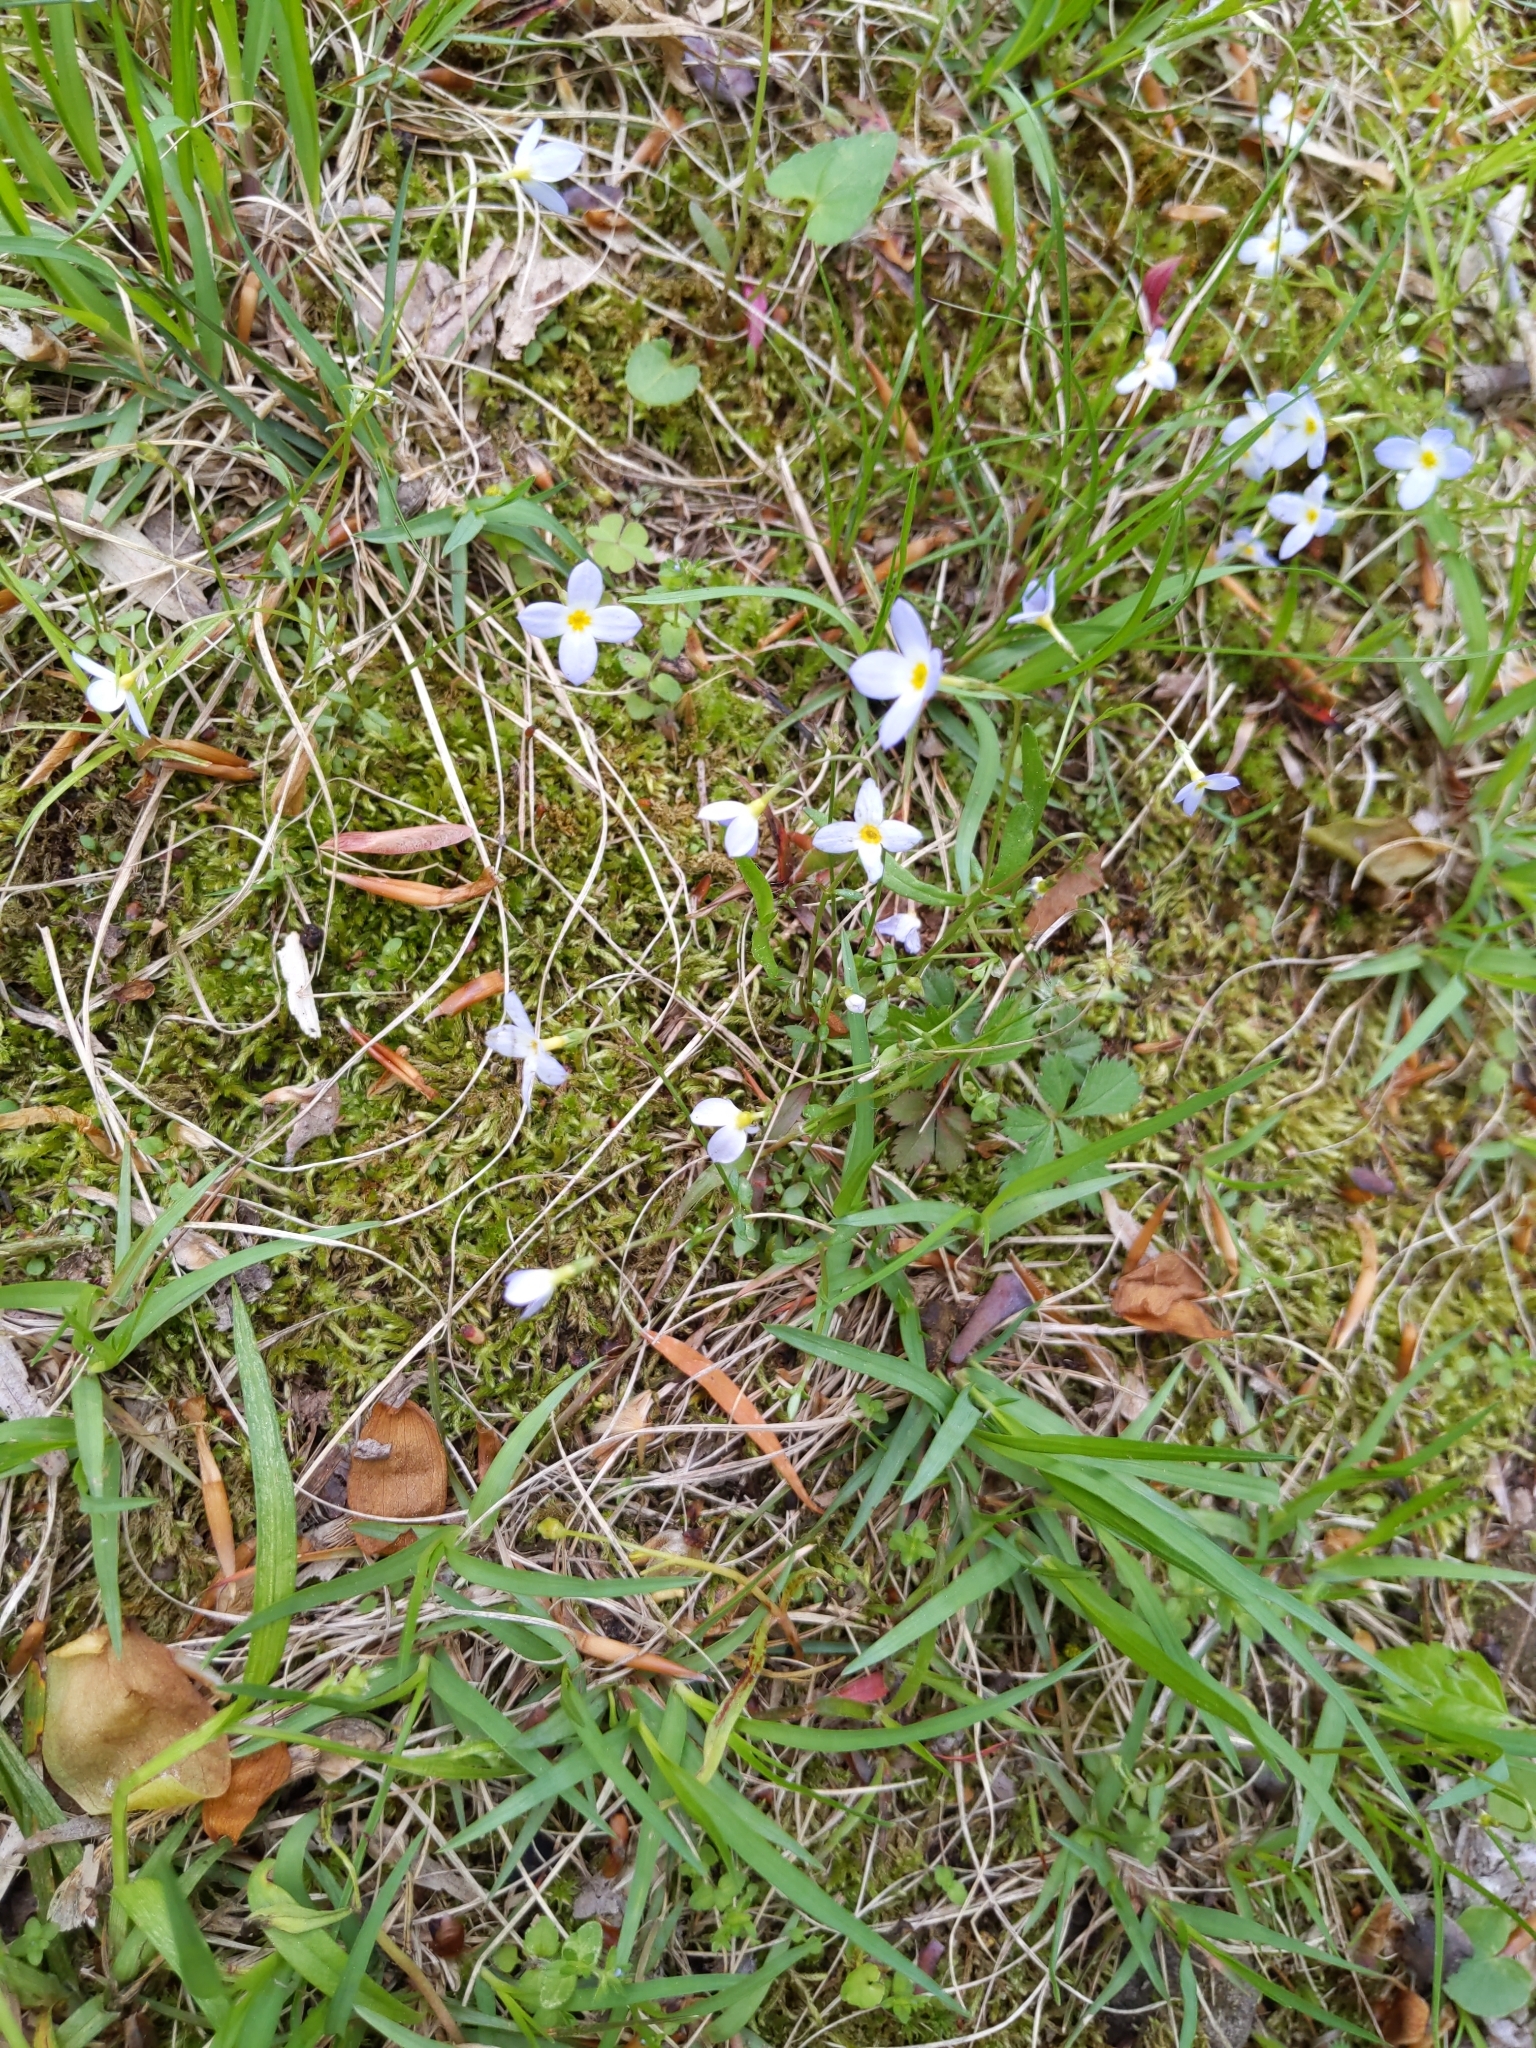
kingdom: Plantae
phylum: Tracheophyta
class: Magnoliopsida
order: Gentianales
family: Rubiaceae
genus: Houstonia
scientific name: Houstonia caerulea
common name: Bluets
